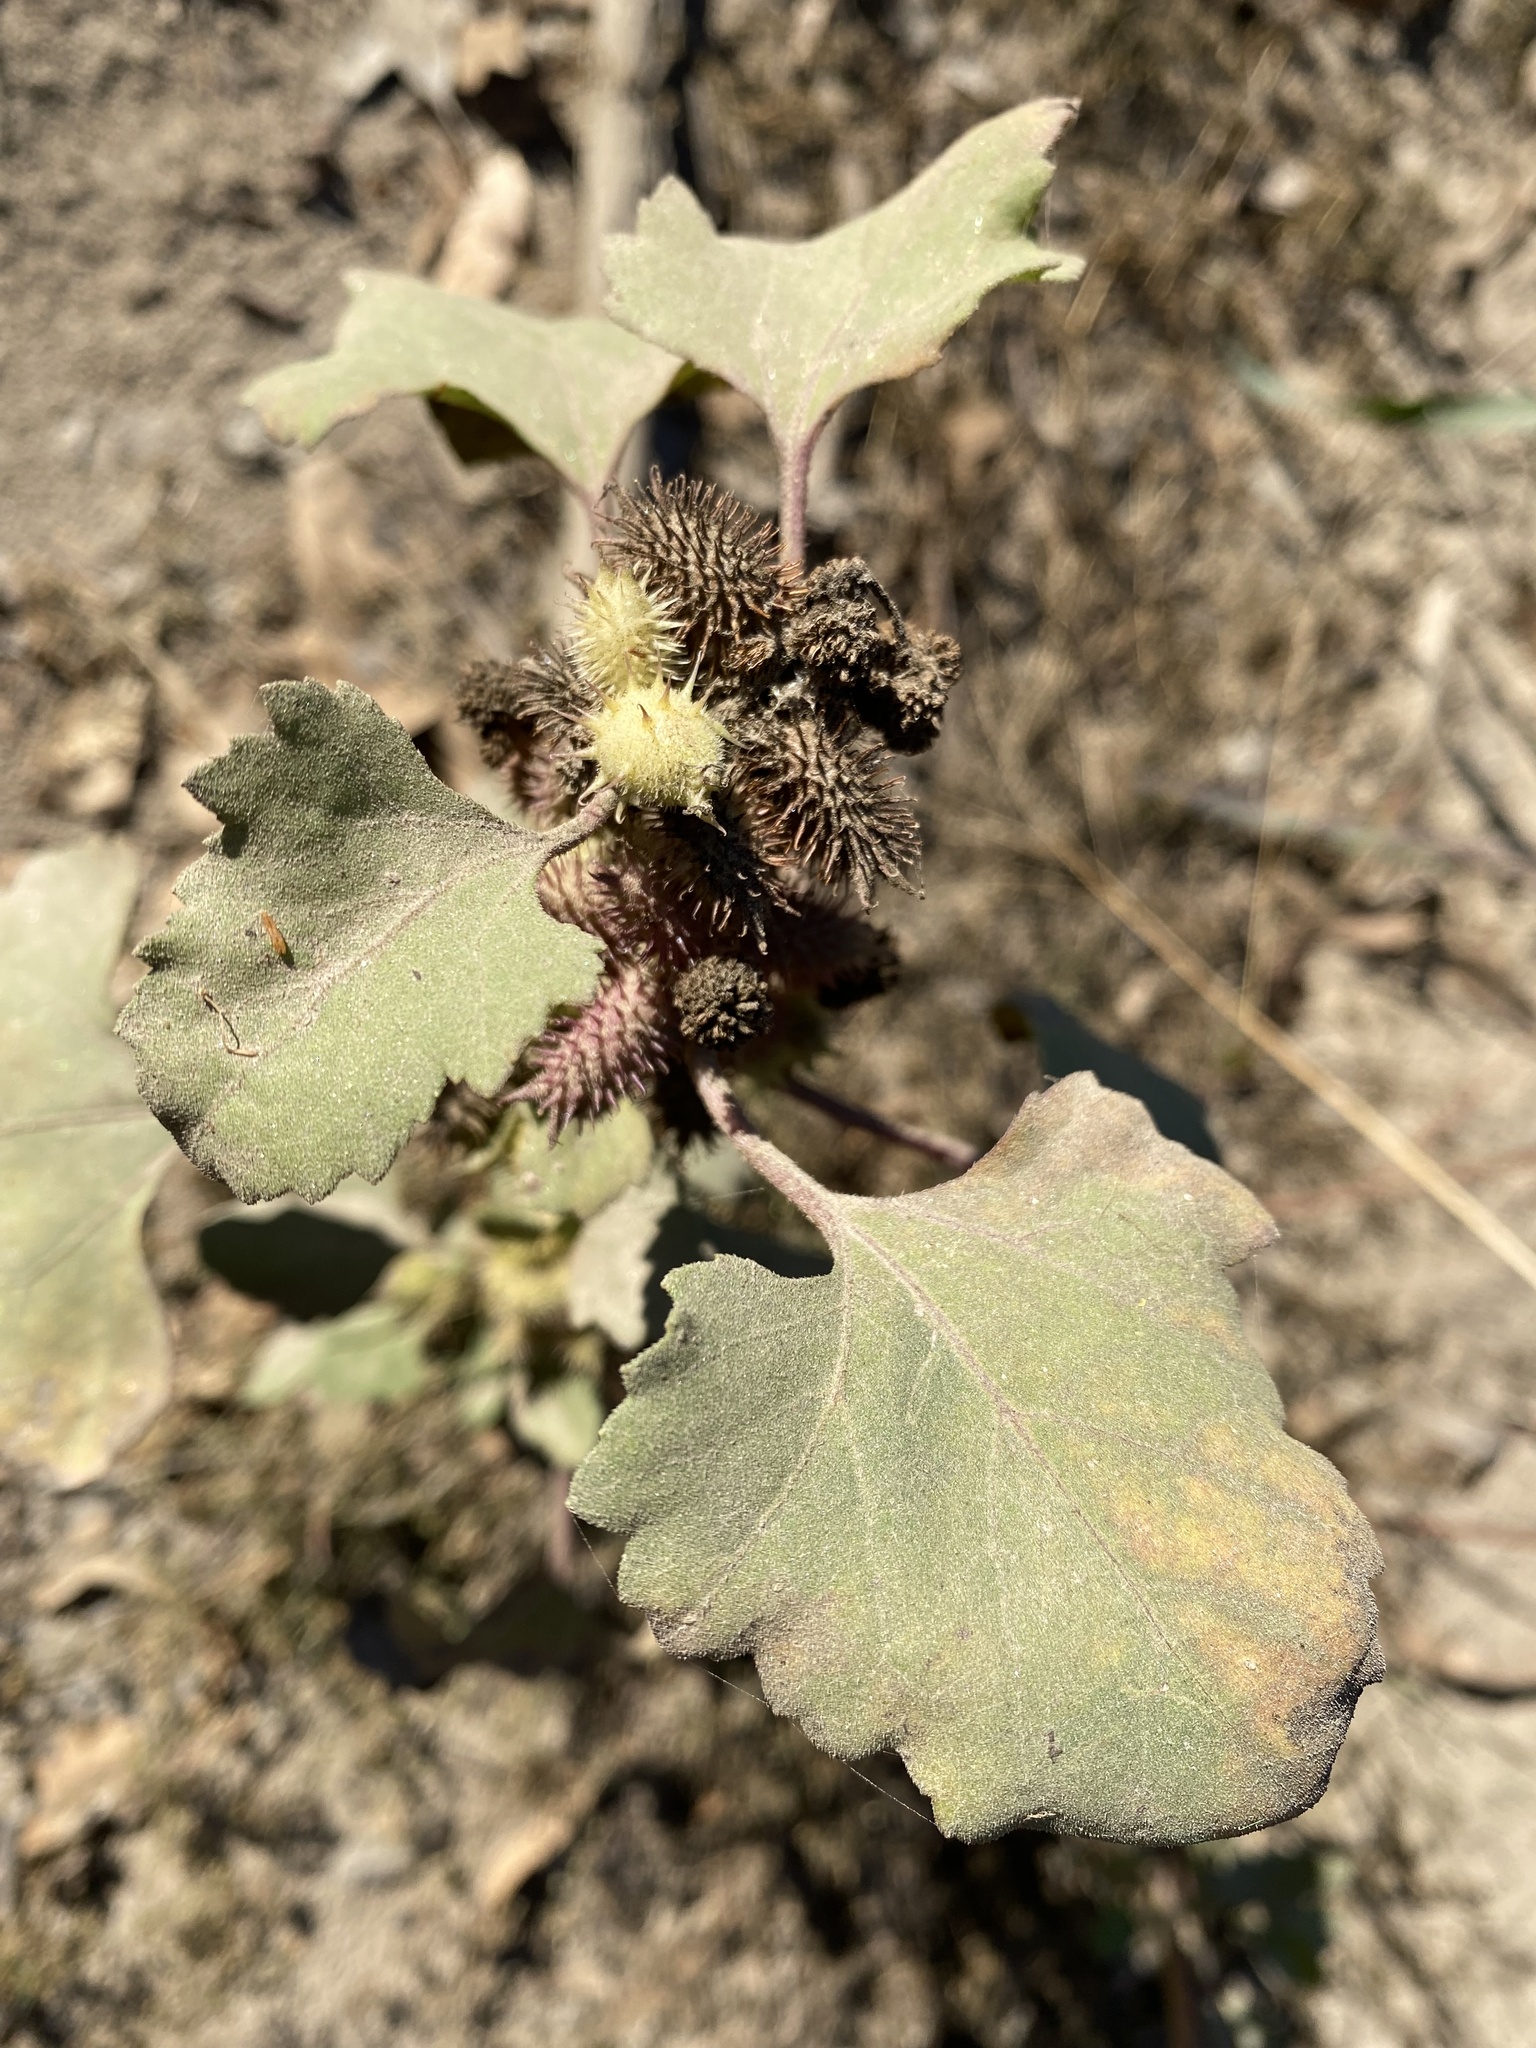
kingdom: Plantae
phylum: Tracheophyta
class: Magnoliopsida
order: Asterales
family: Asteraceae
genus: Xanthium
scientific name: Xanthium strumarium
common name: Rough cocklebur
